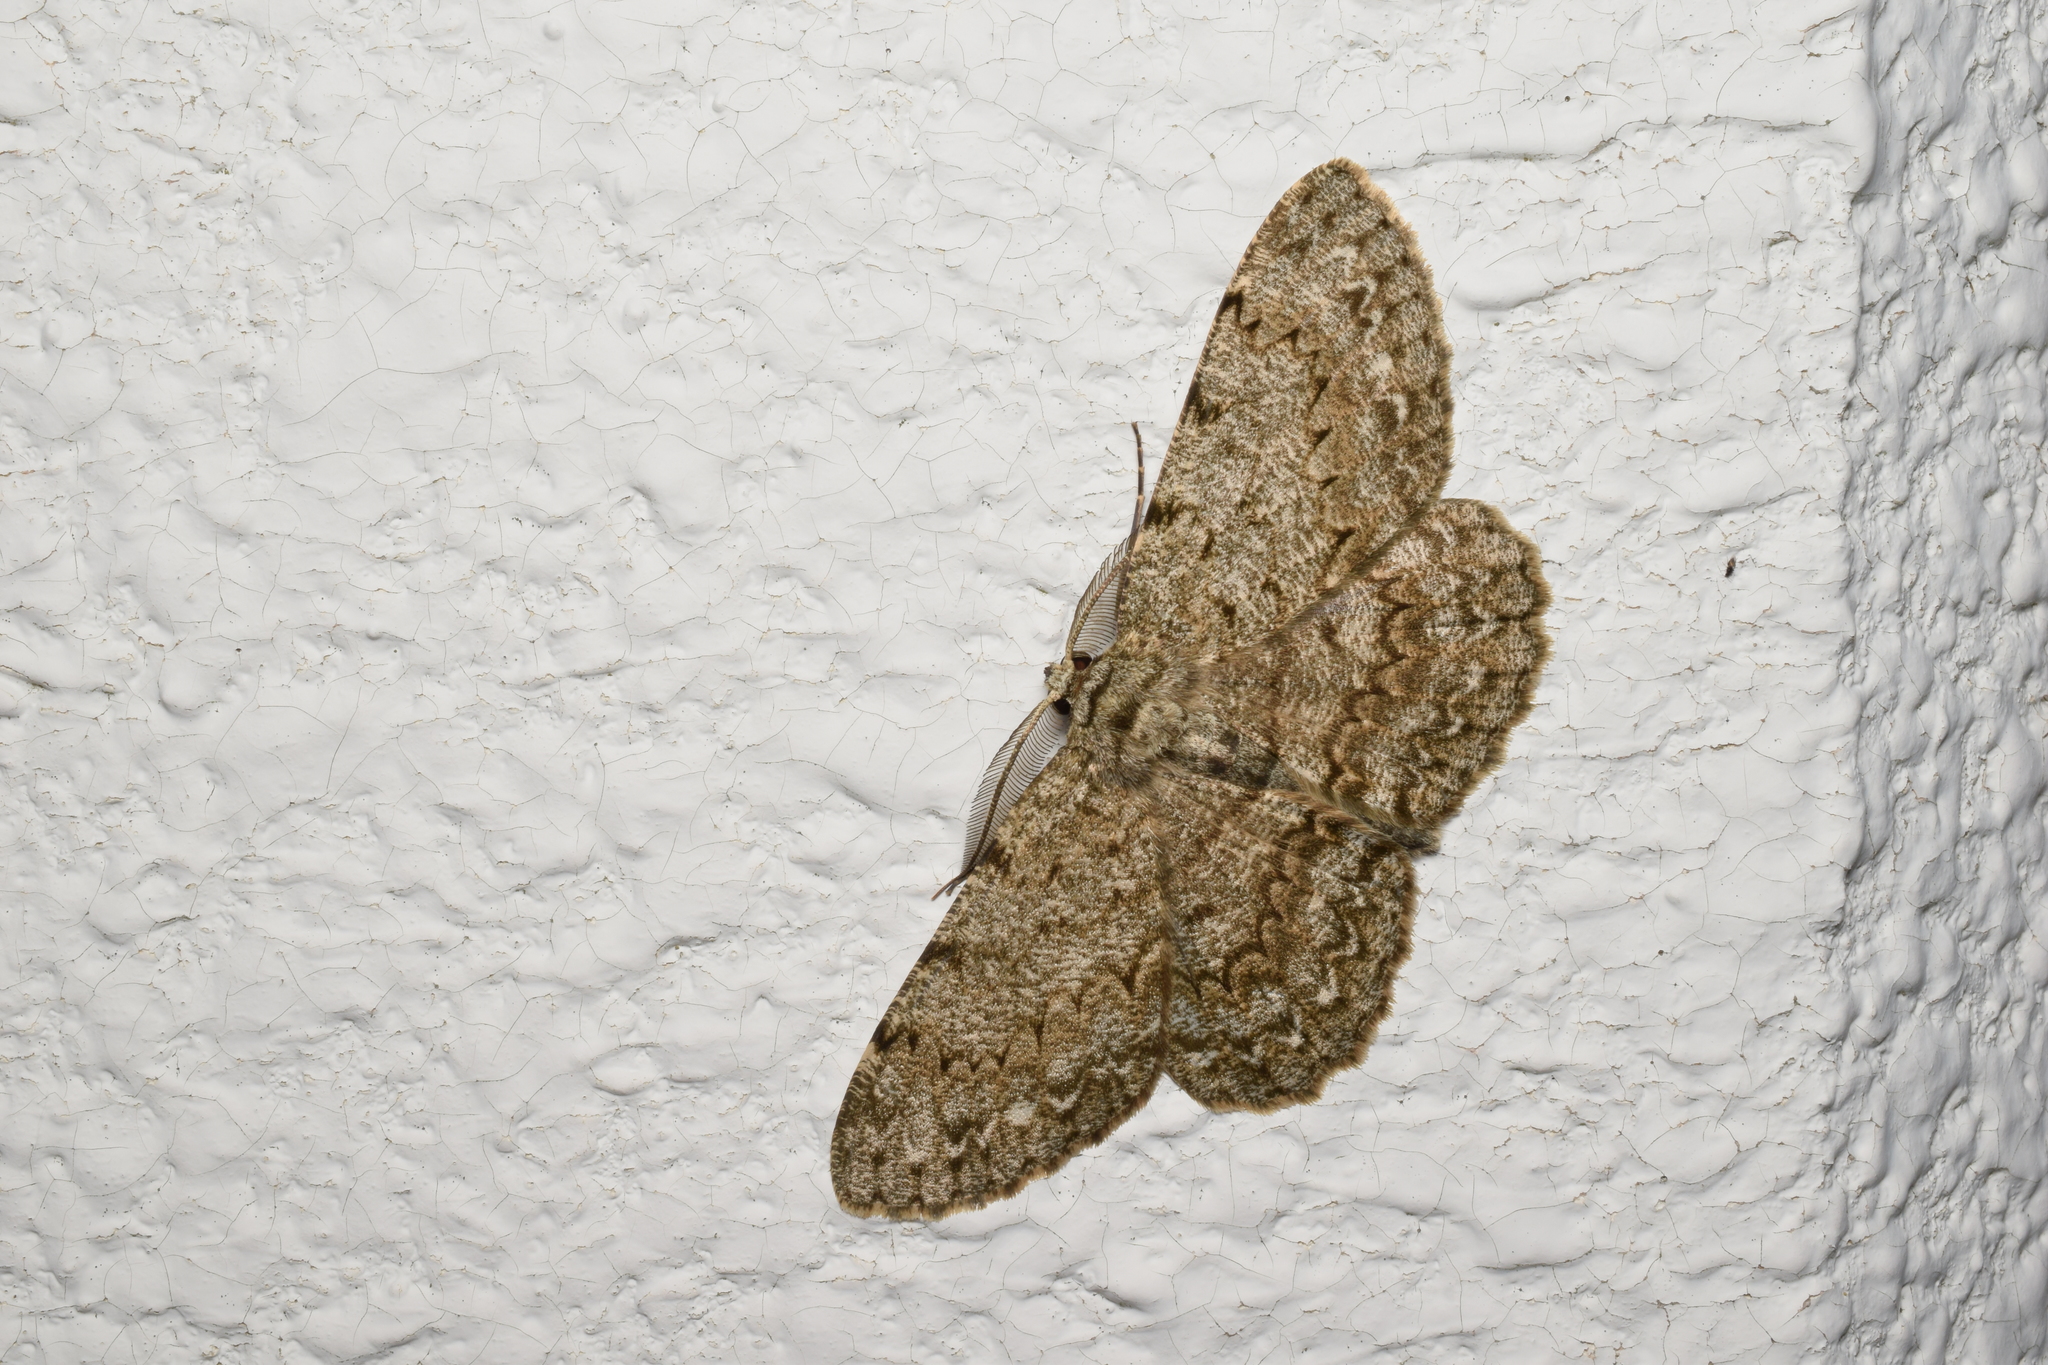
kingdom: Animalia
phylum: Arthropoda
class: Insecta
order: Lepidoptera
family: Geometridae
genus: Hypomecis
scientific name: Hypomecis lunifera
